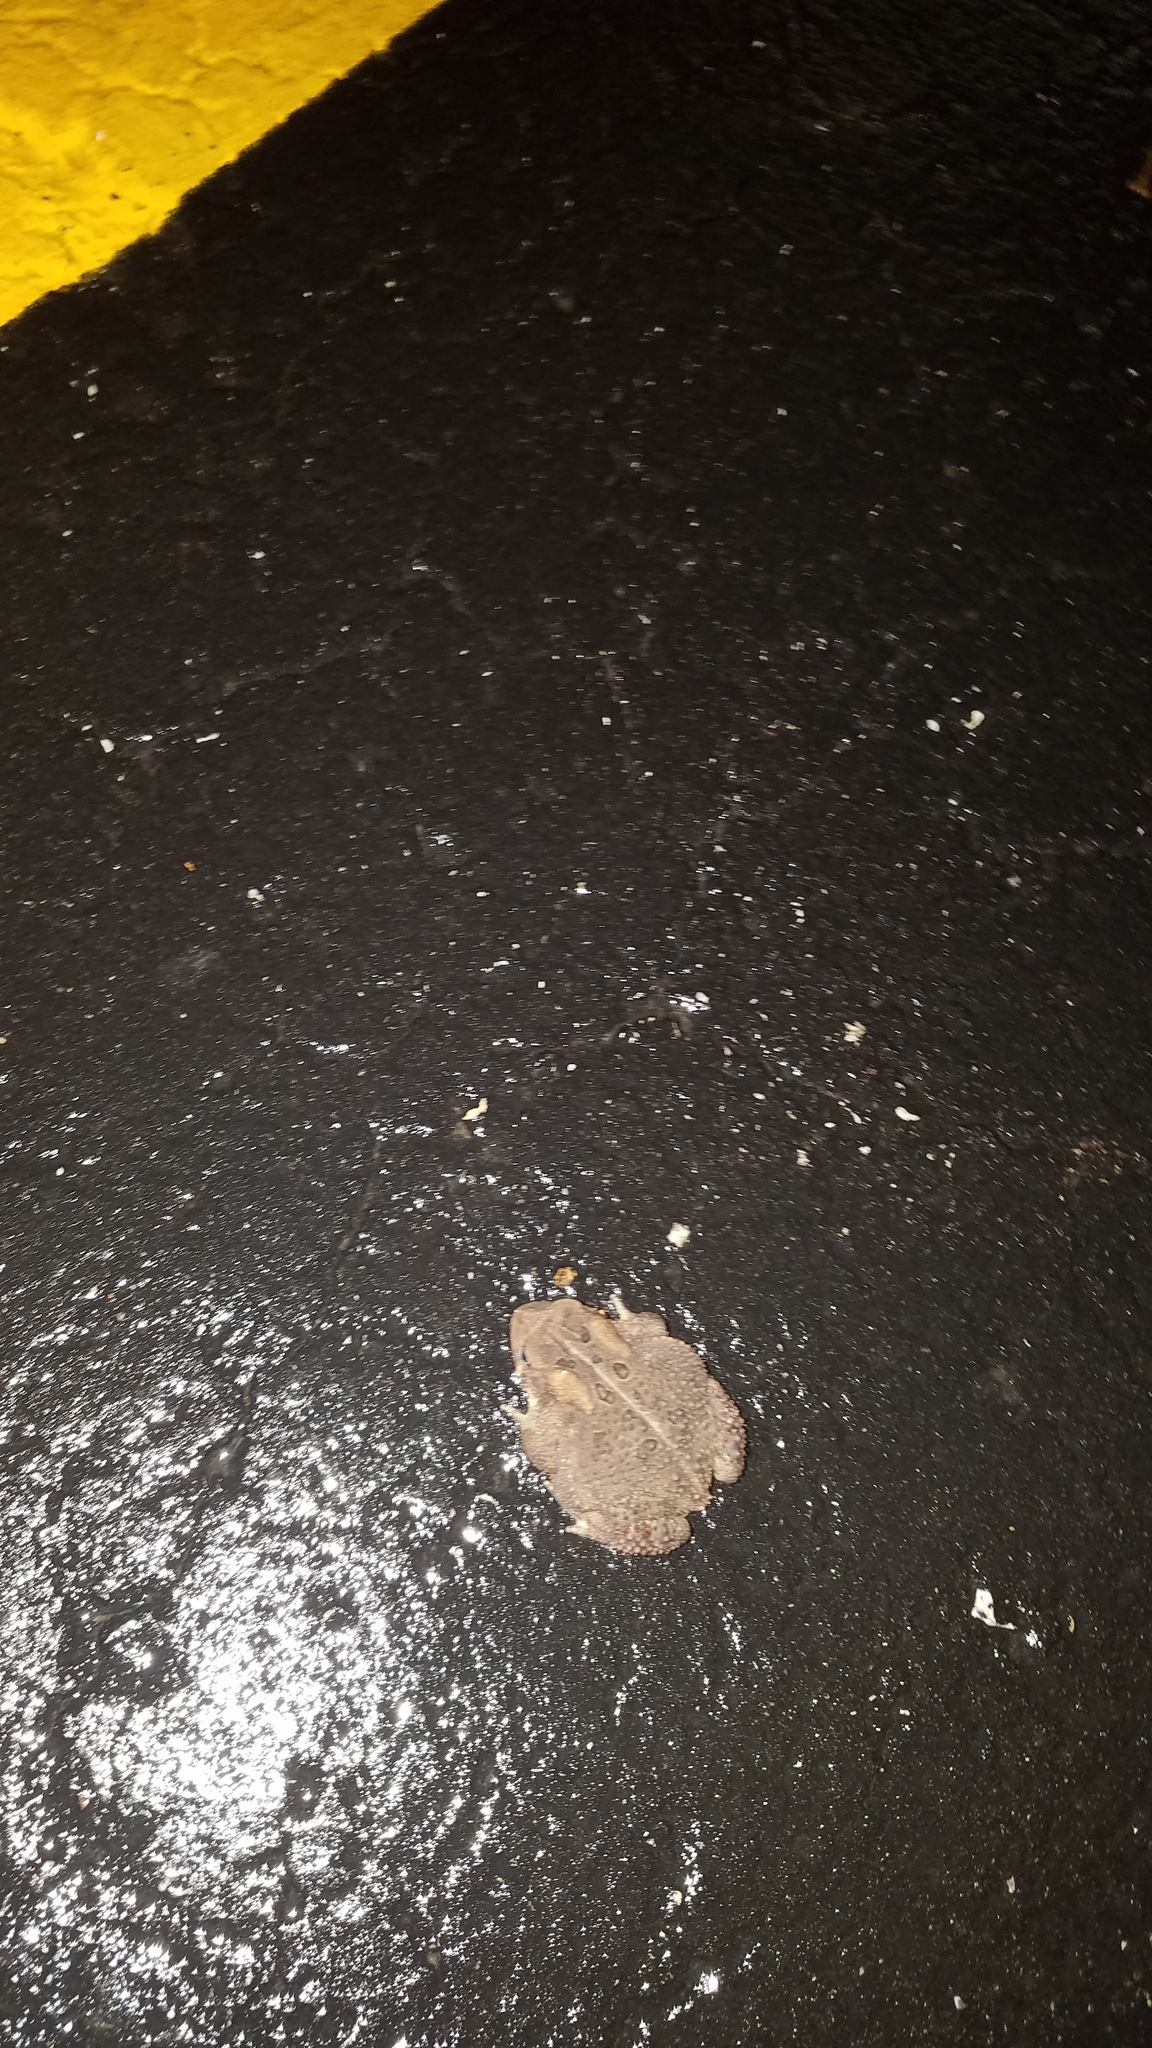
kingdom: Animalia
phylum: Chordata
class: Amphibia
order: Anura
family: Bufonidae
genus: Anaxyrus
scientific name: Anaxyrus americanus
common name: American toad
